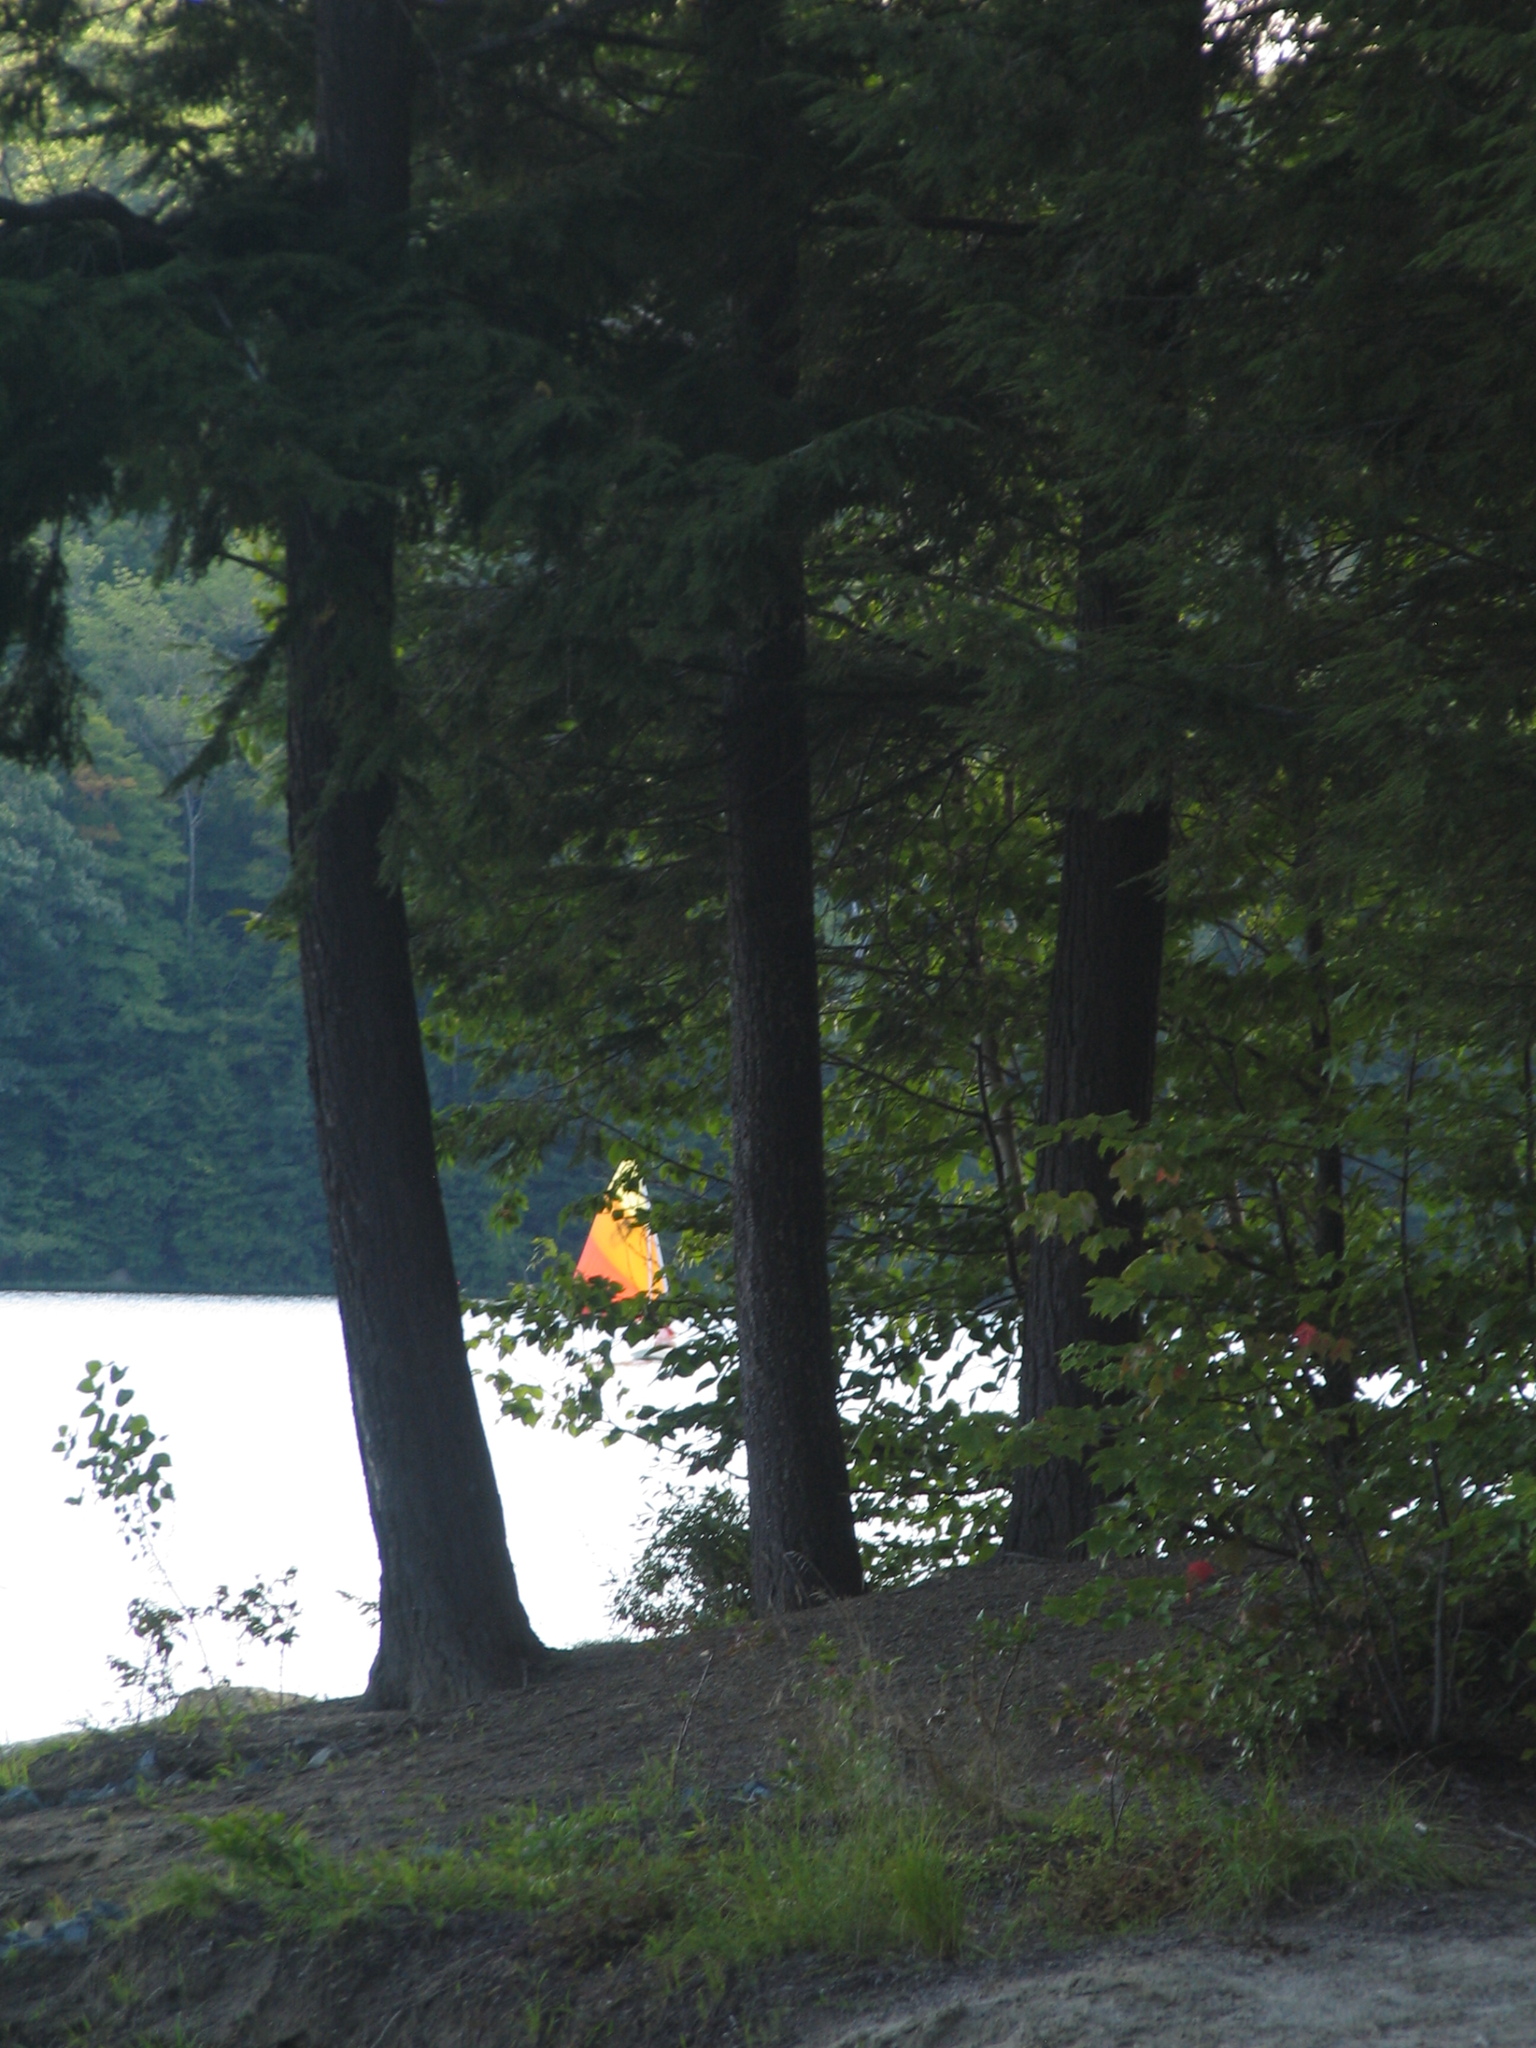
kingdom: Plantae
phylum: Tracheophyta
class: Pinopsida
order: Pinales
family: Pinaceae
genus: Tsuga
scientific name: Tsuga canadensis
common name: Eastern hemlock
